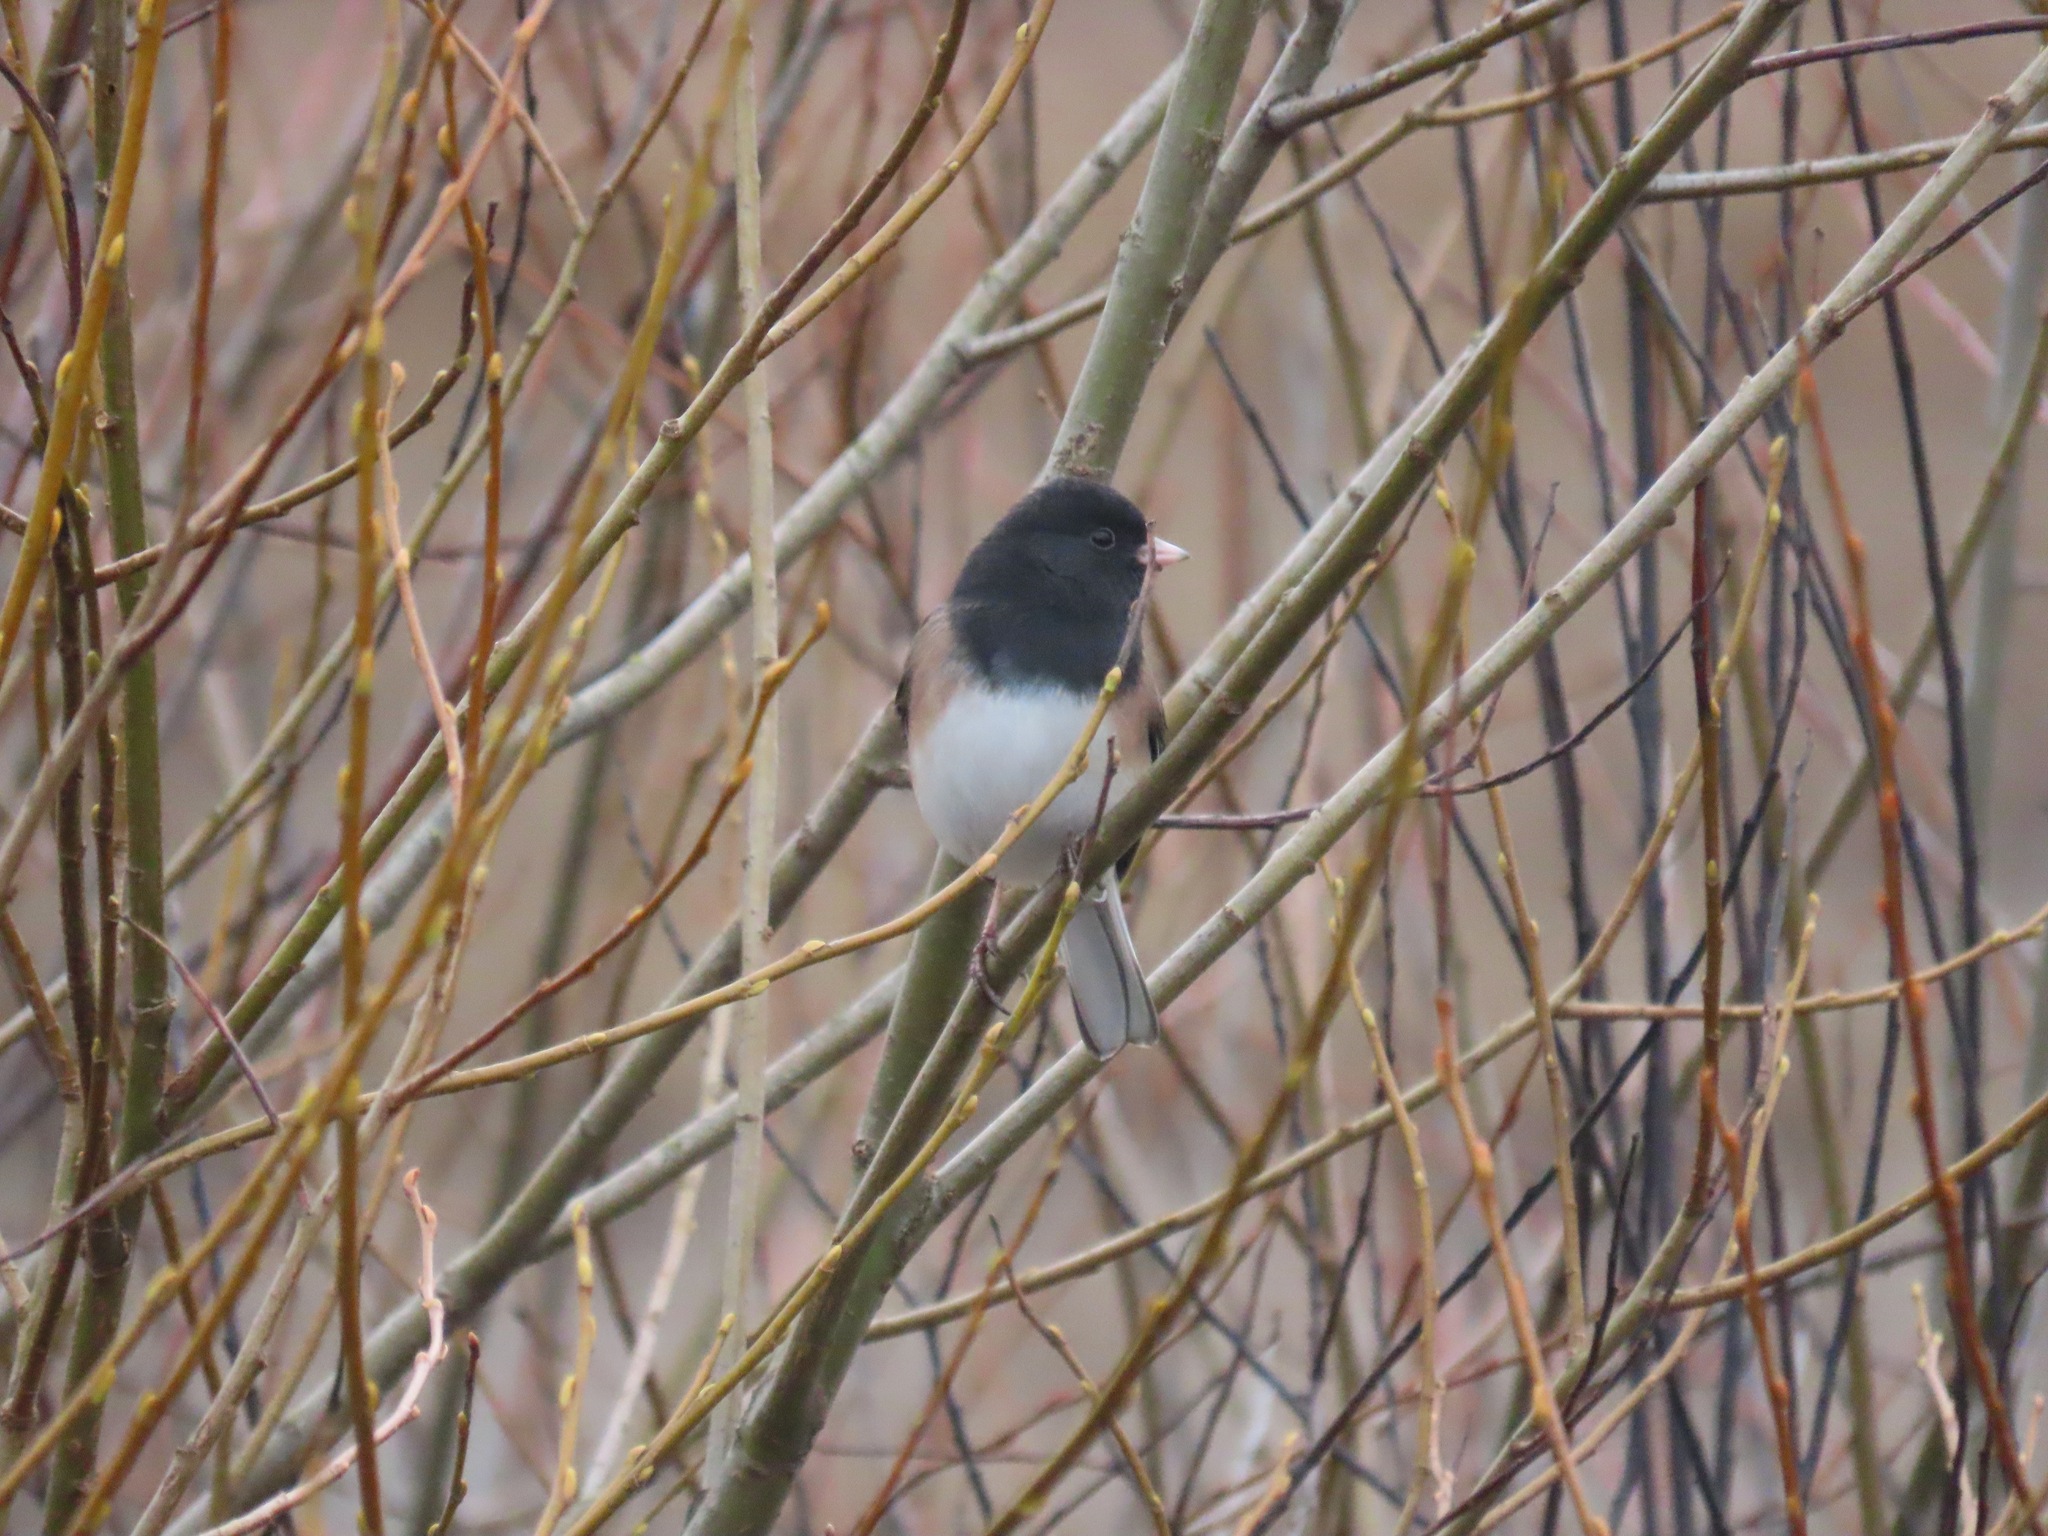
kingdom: Animalia
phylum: Chordata
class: Aves
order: Passeriformes
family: Passerellidae
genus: Junco
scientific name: Junco hyemalis
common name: Dark-eyed junco
